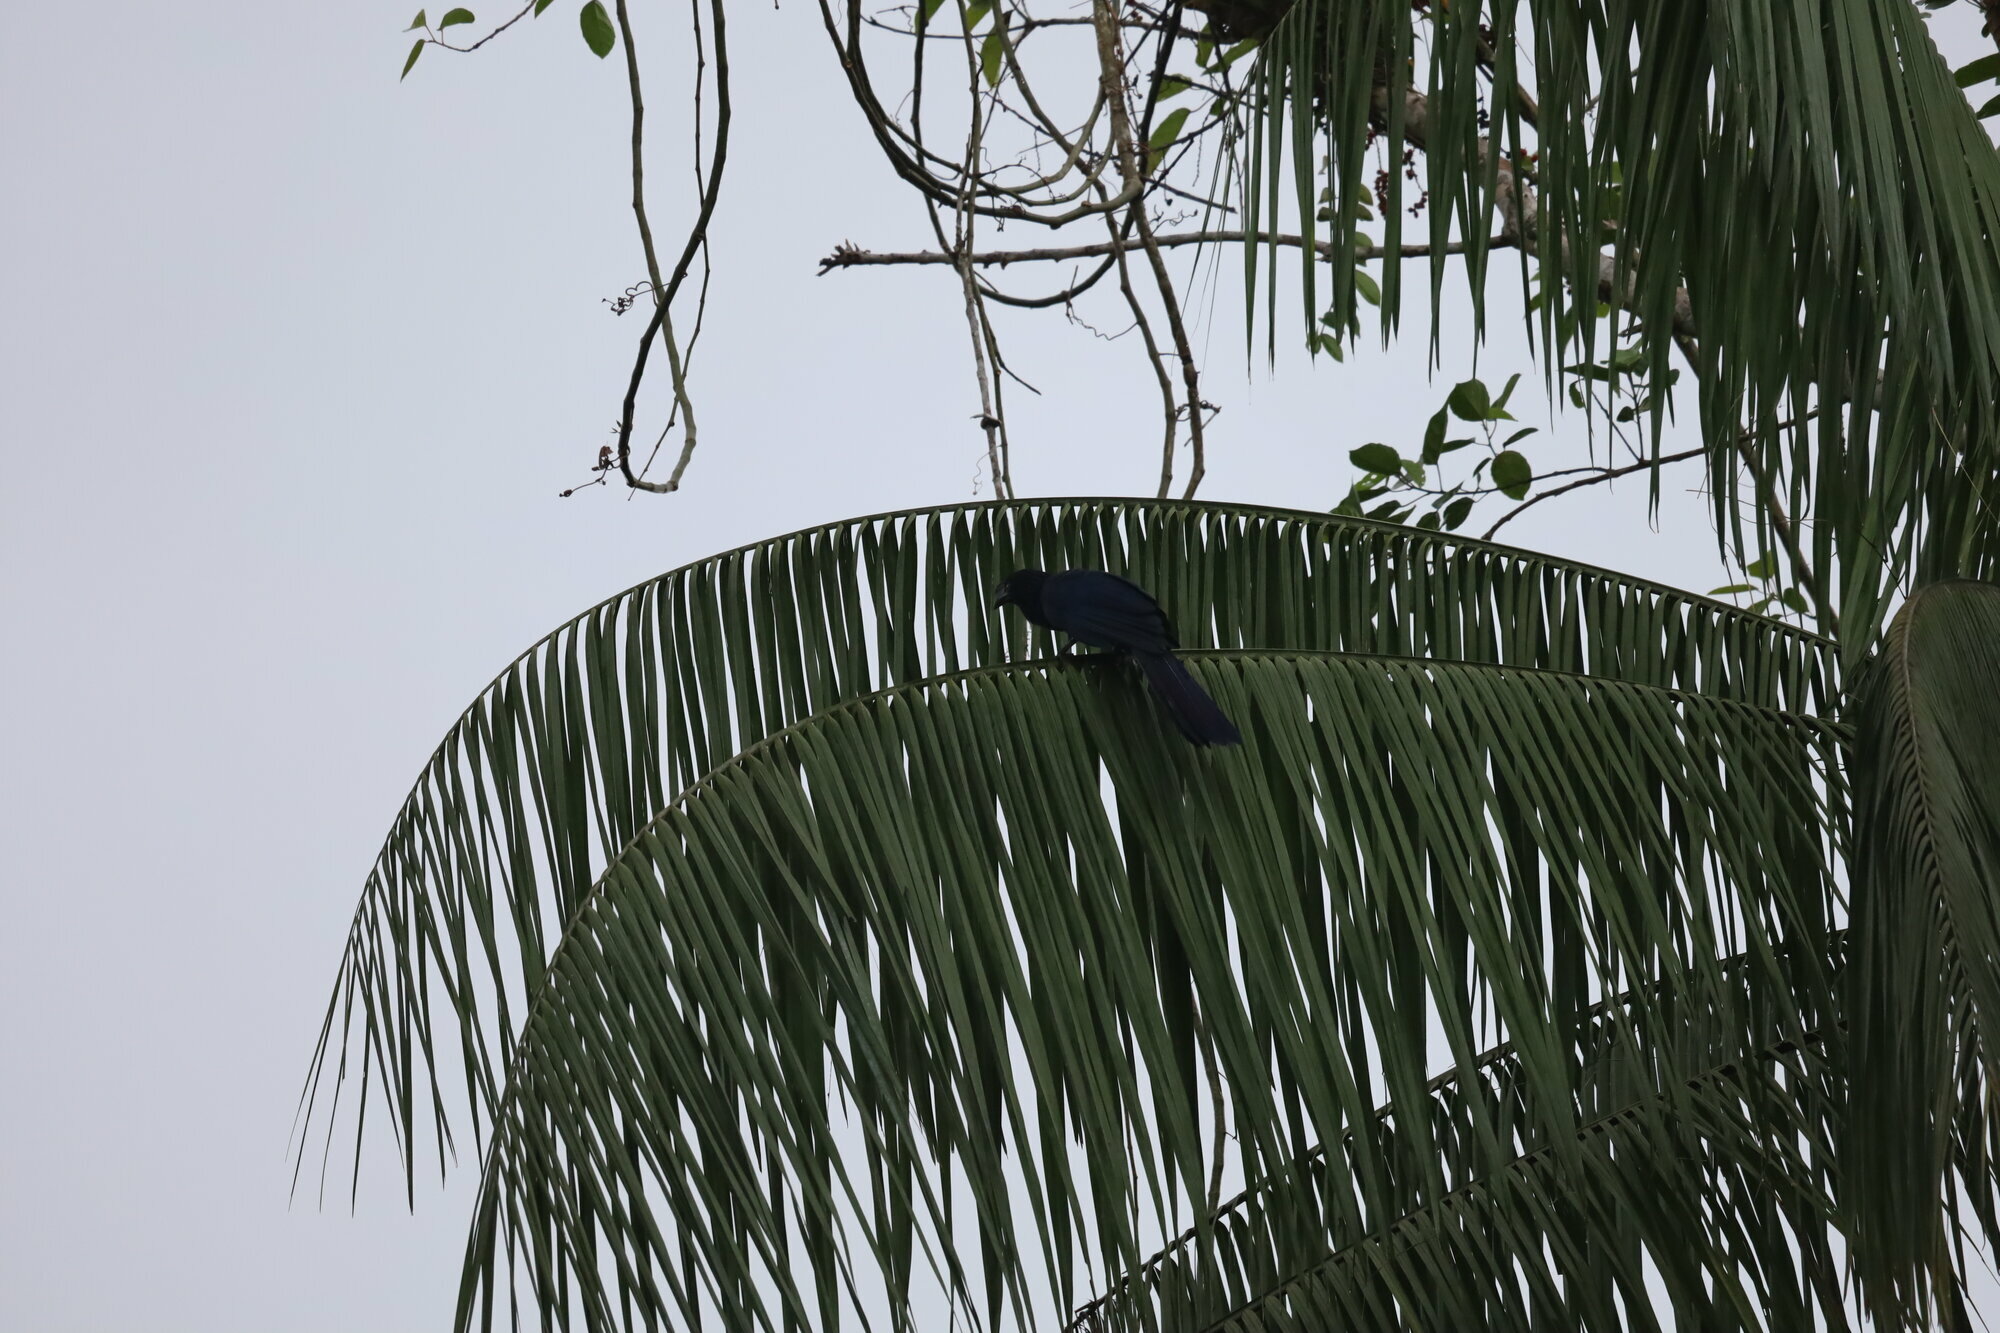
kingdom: Animalia
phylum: Chordata
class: Aves
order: Cuculiformes
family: Cuculidae
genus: Crotophaga
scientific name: Crotophaga major
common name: Greater ani
